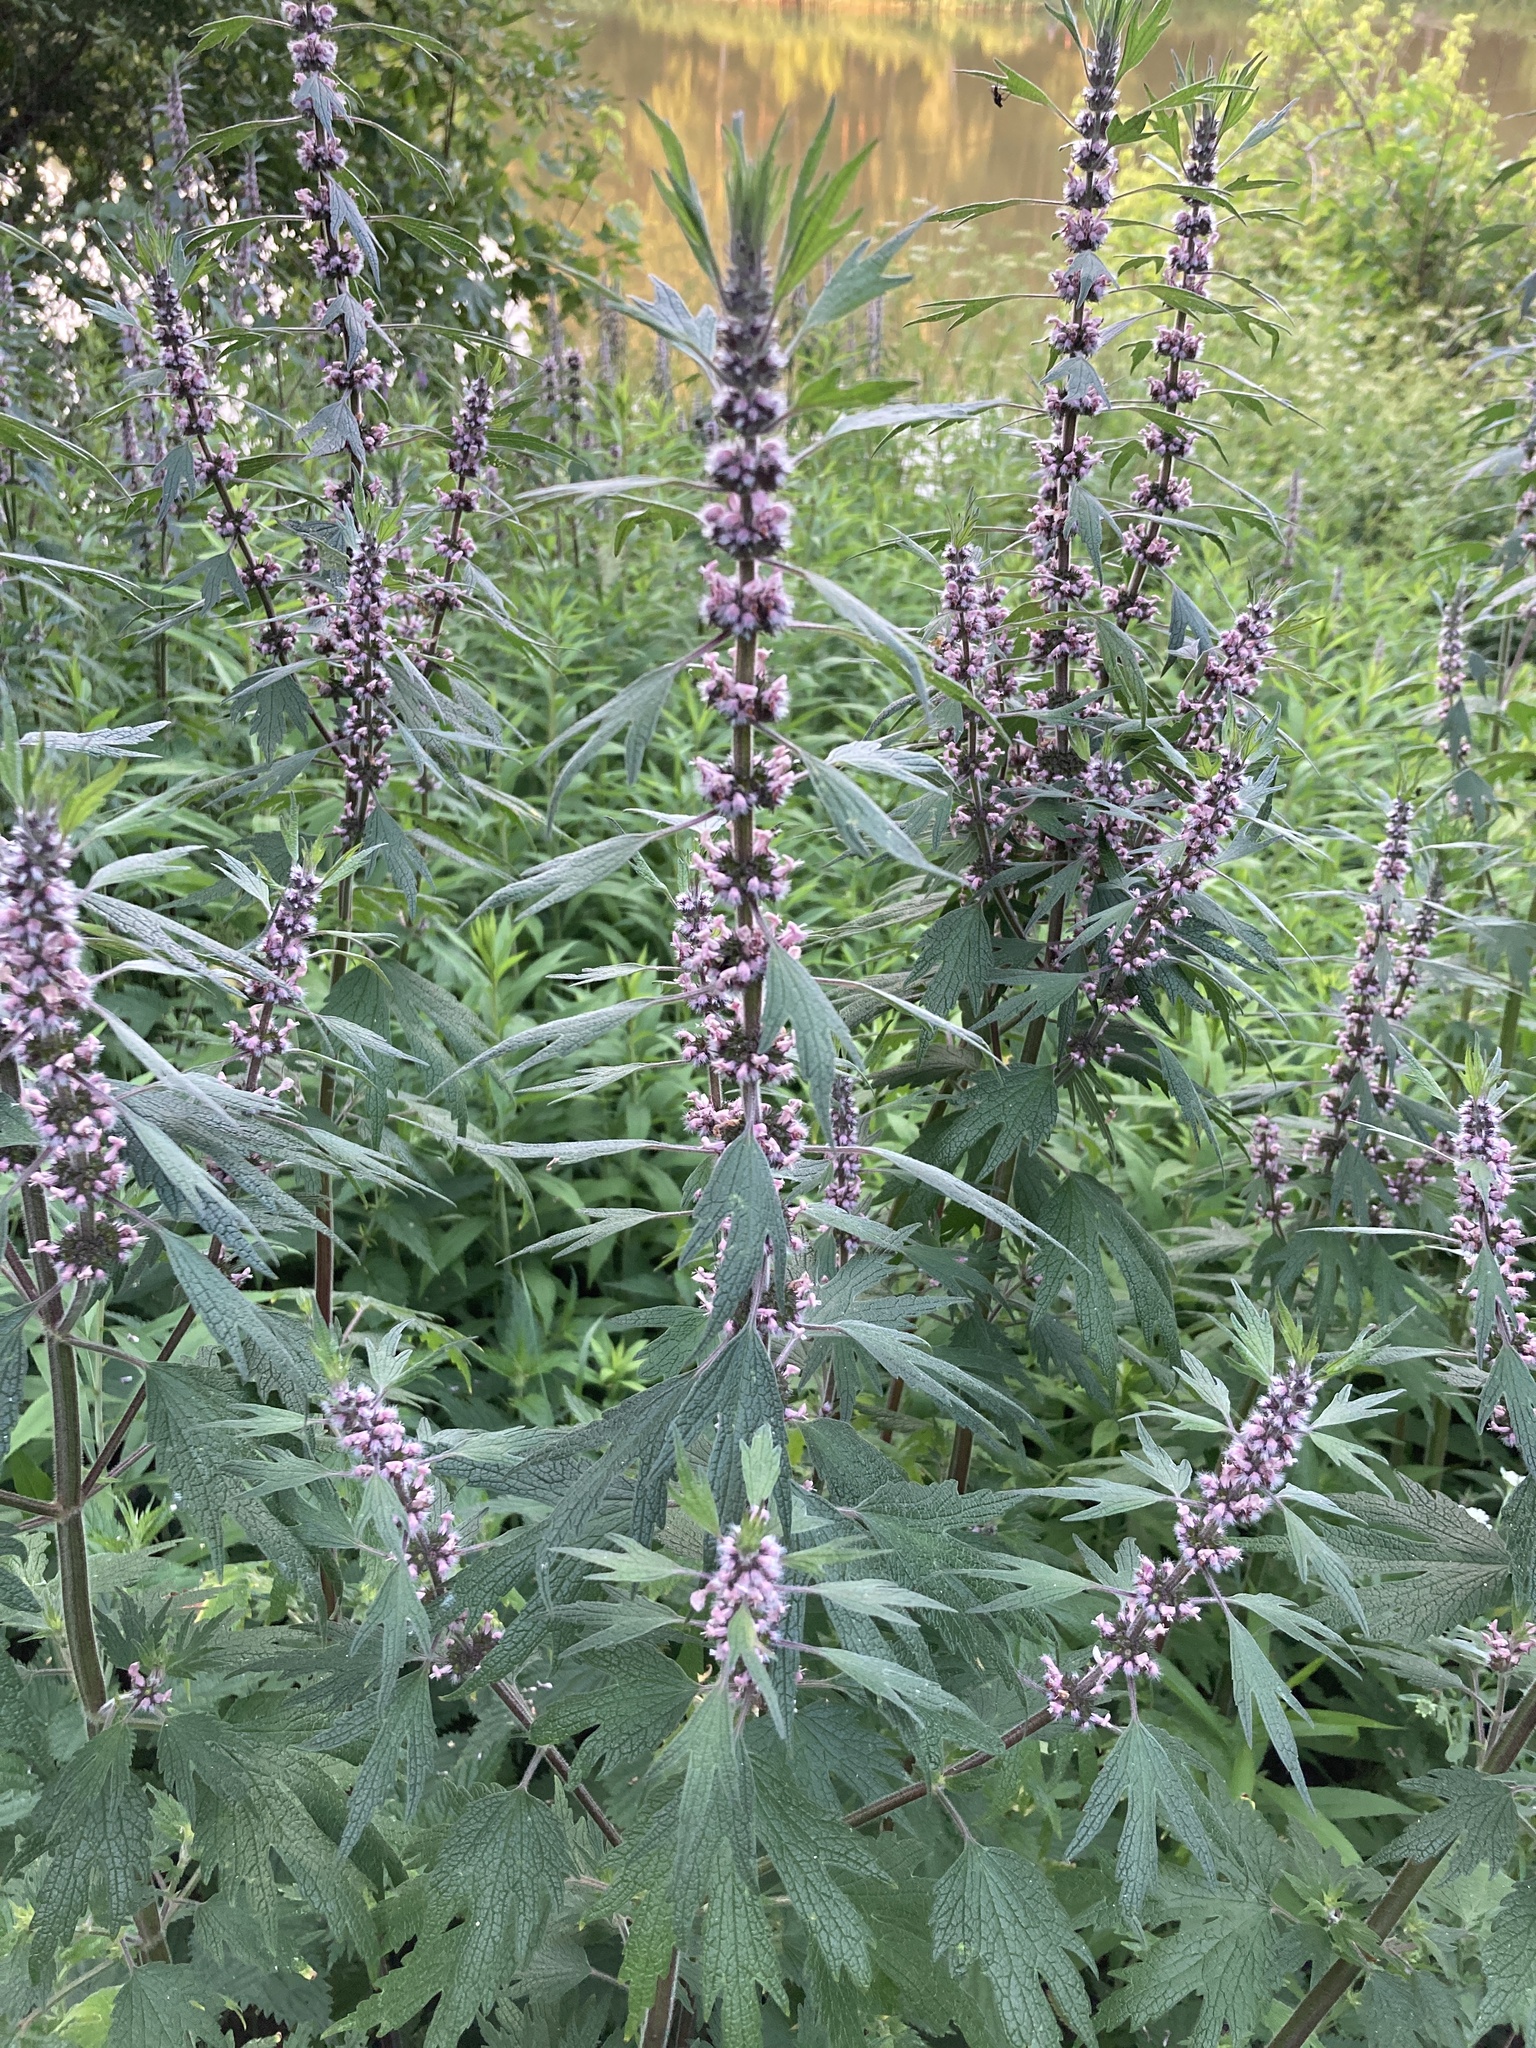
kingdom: Plantae
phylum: Tracheophyta
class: Magnoliopsida
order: Lamiales
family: Lamiaceae
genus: Leonurus
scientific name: Leonurus quinquelobatus
